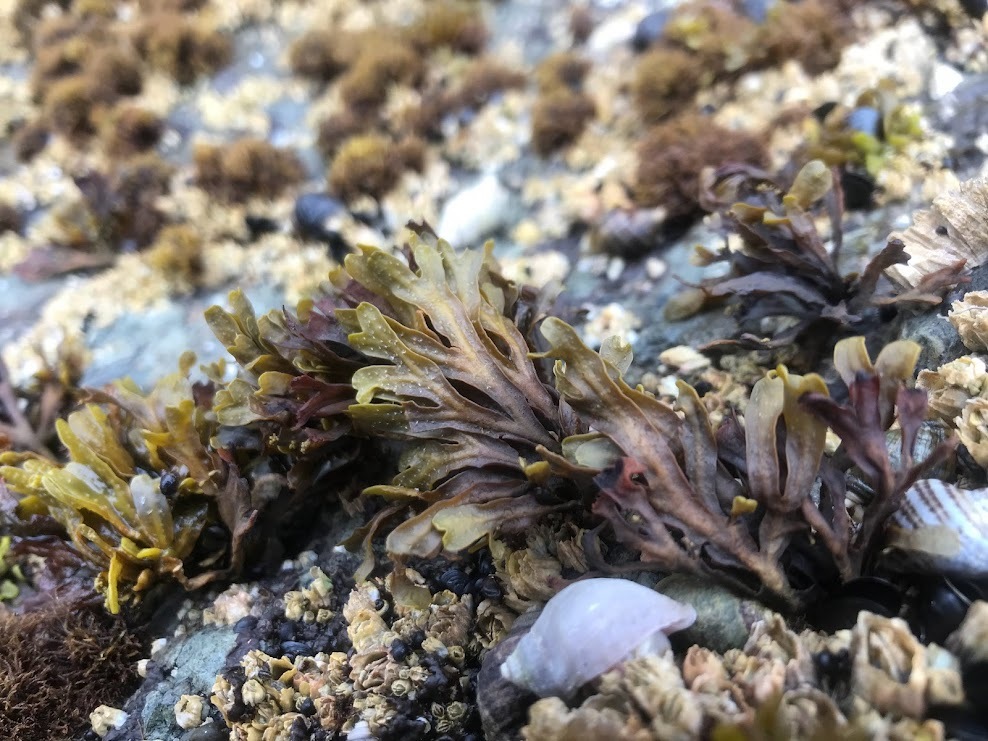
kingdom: Chromista
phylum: Ochrophyta
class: Phaeophyceae
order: Fucales
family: Fucaceae
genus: Fucus
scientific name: Fucus distichus
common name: Rockweed
